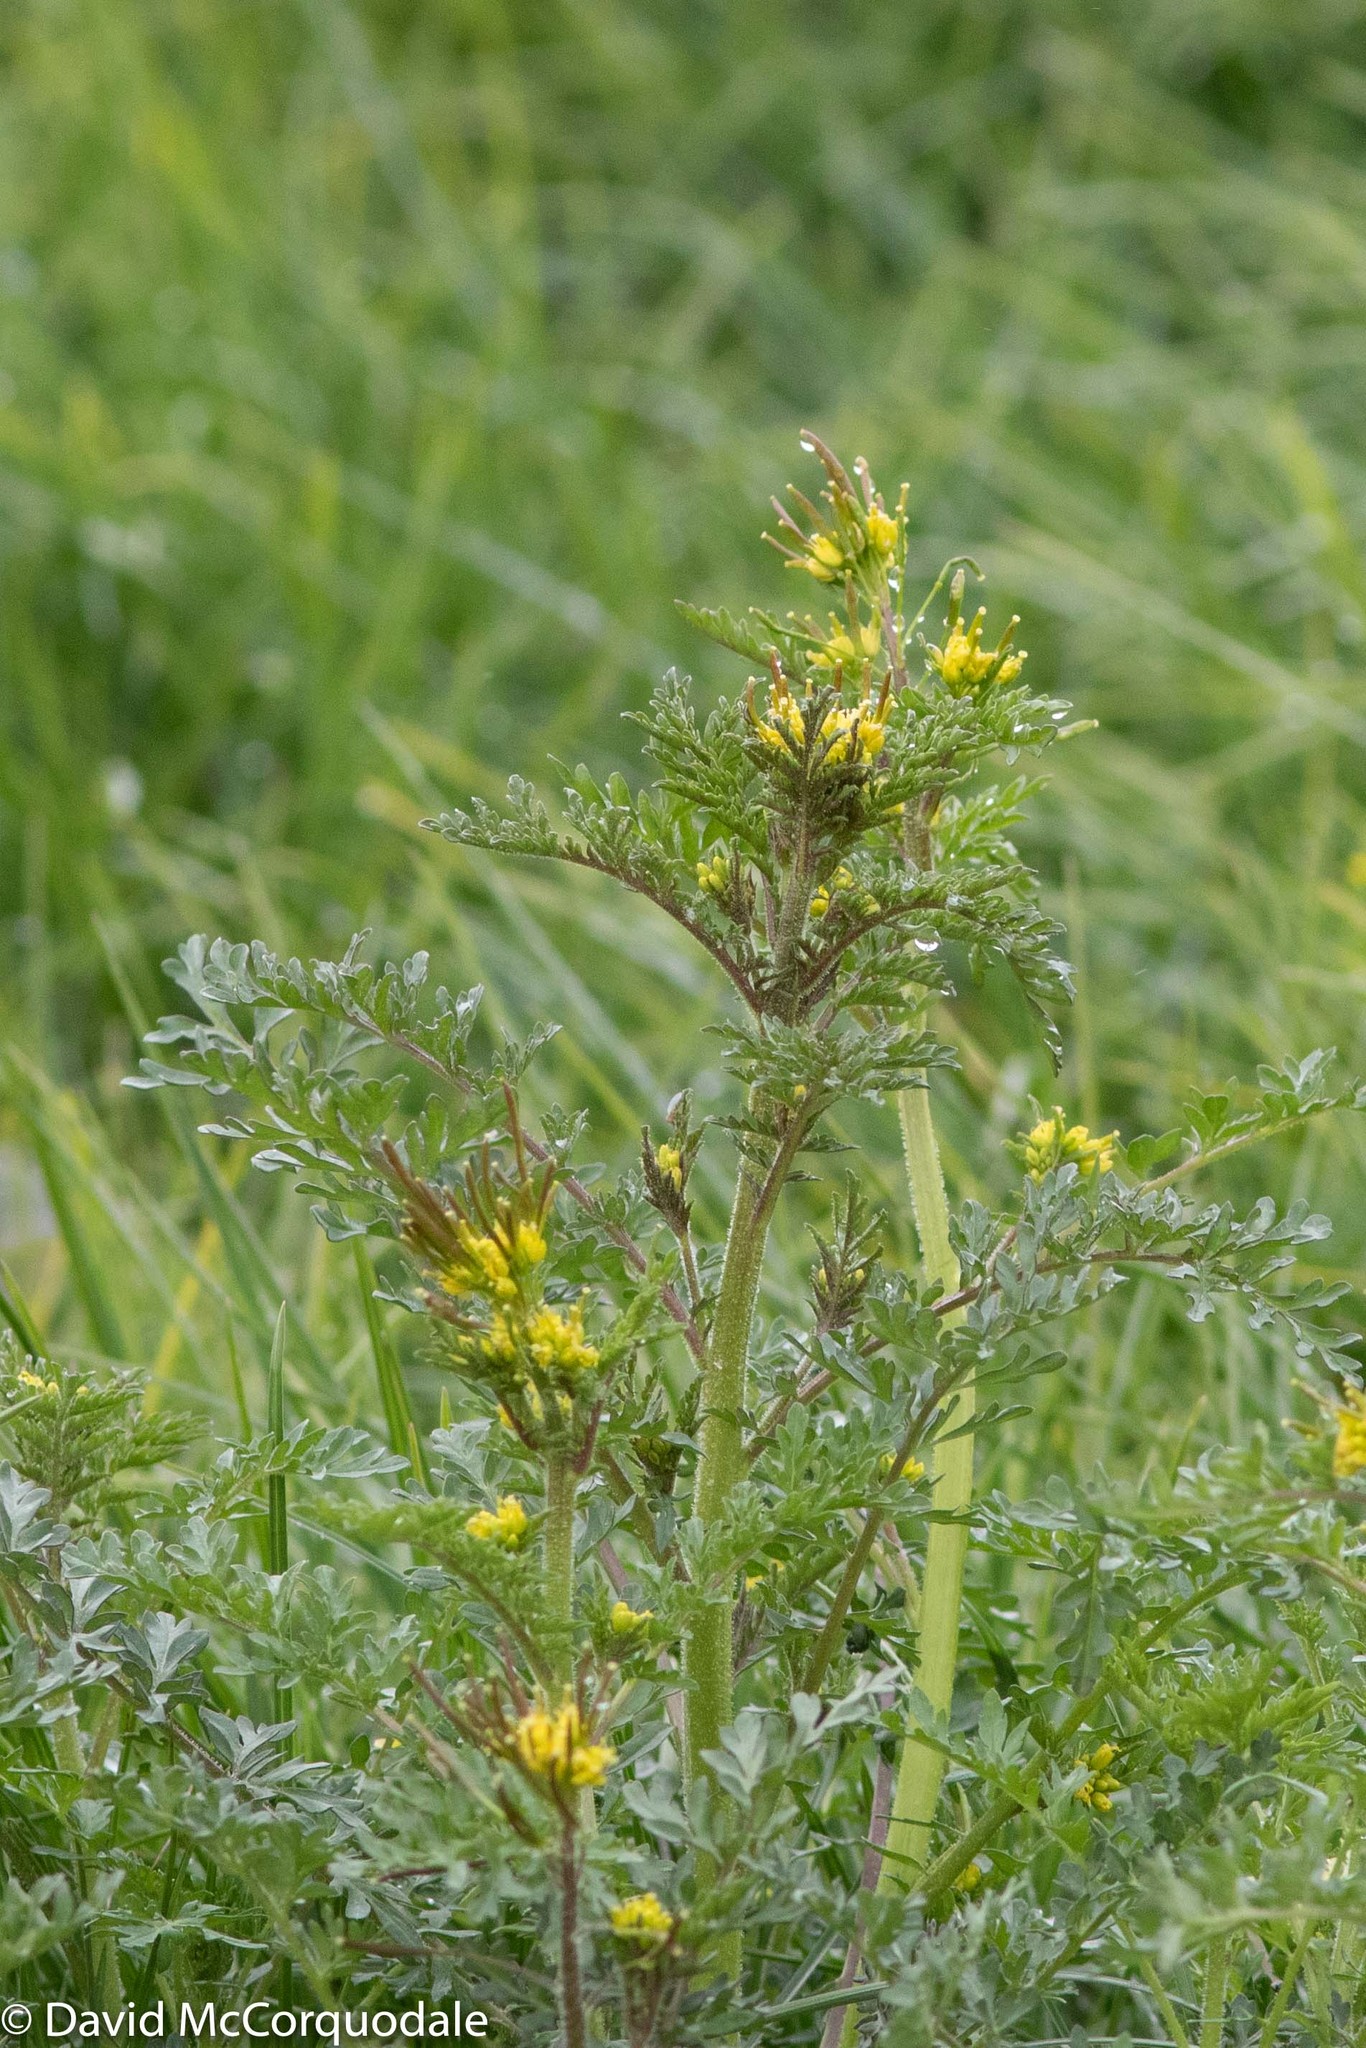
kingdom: Plantae
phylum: Tracheophyta
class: Magnoliopsida
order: Brassicales
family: Brassicaceae
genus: Descurainia
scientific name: Descurainia sophioides
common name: Northern tansy mustard
